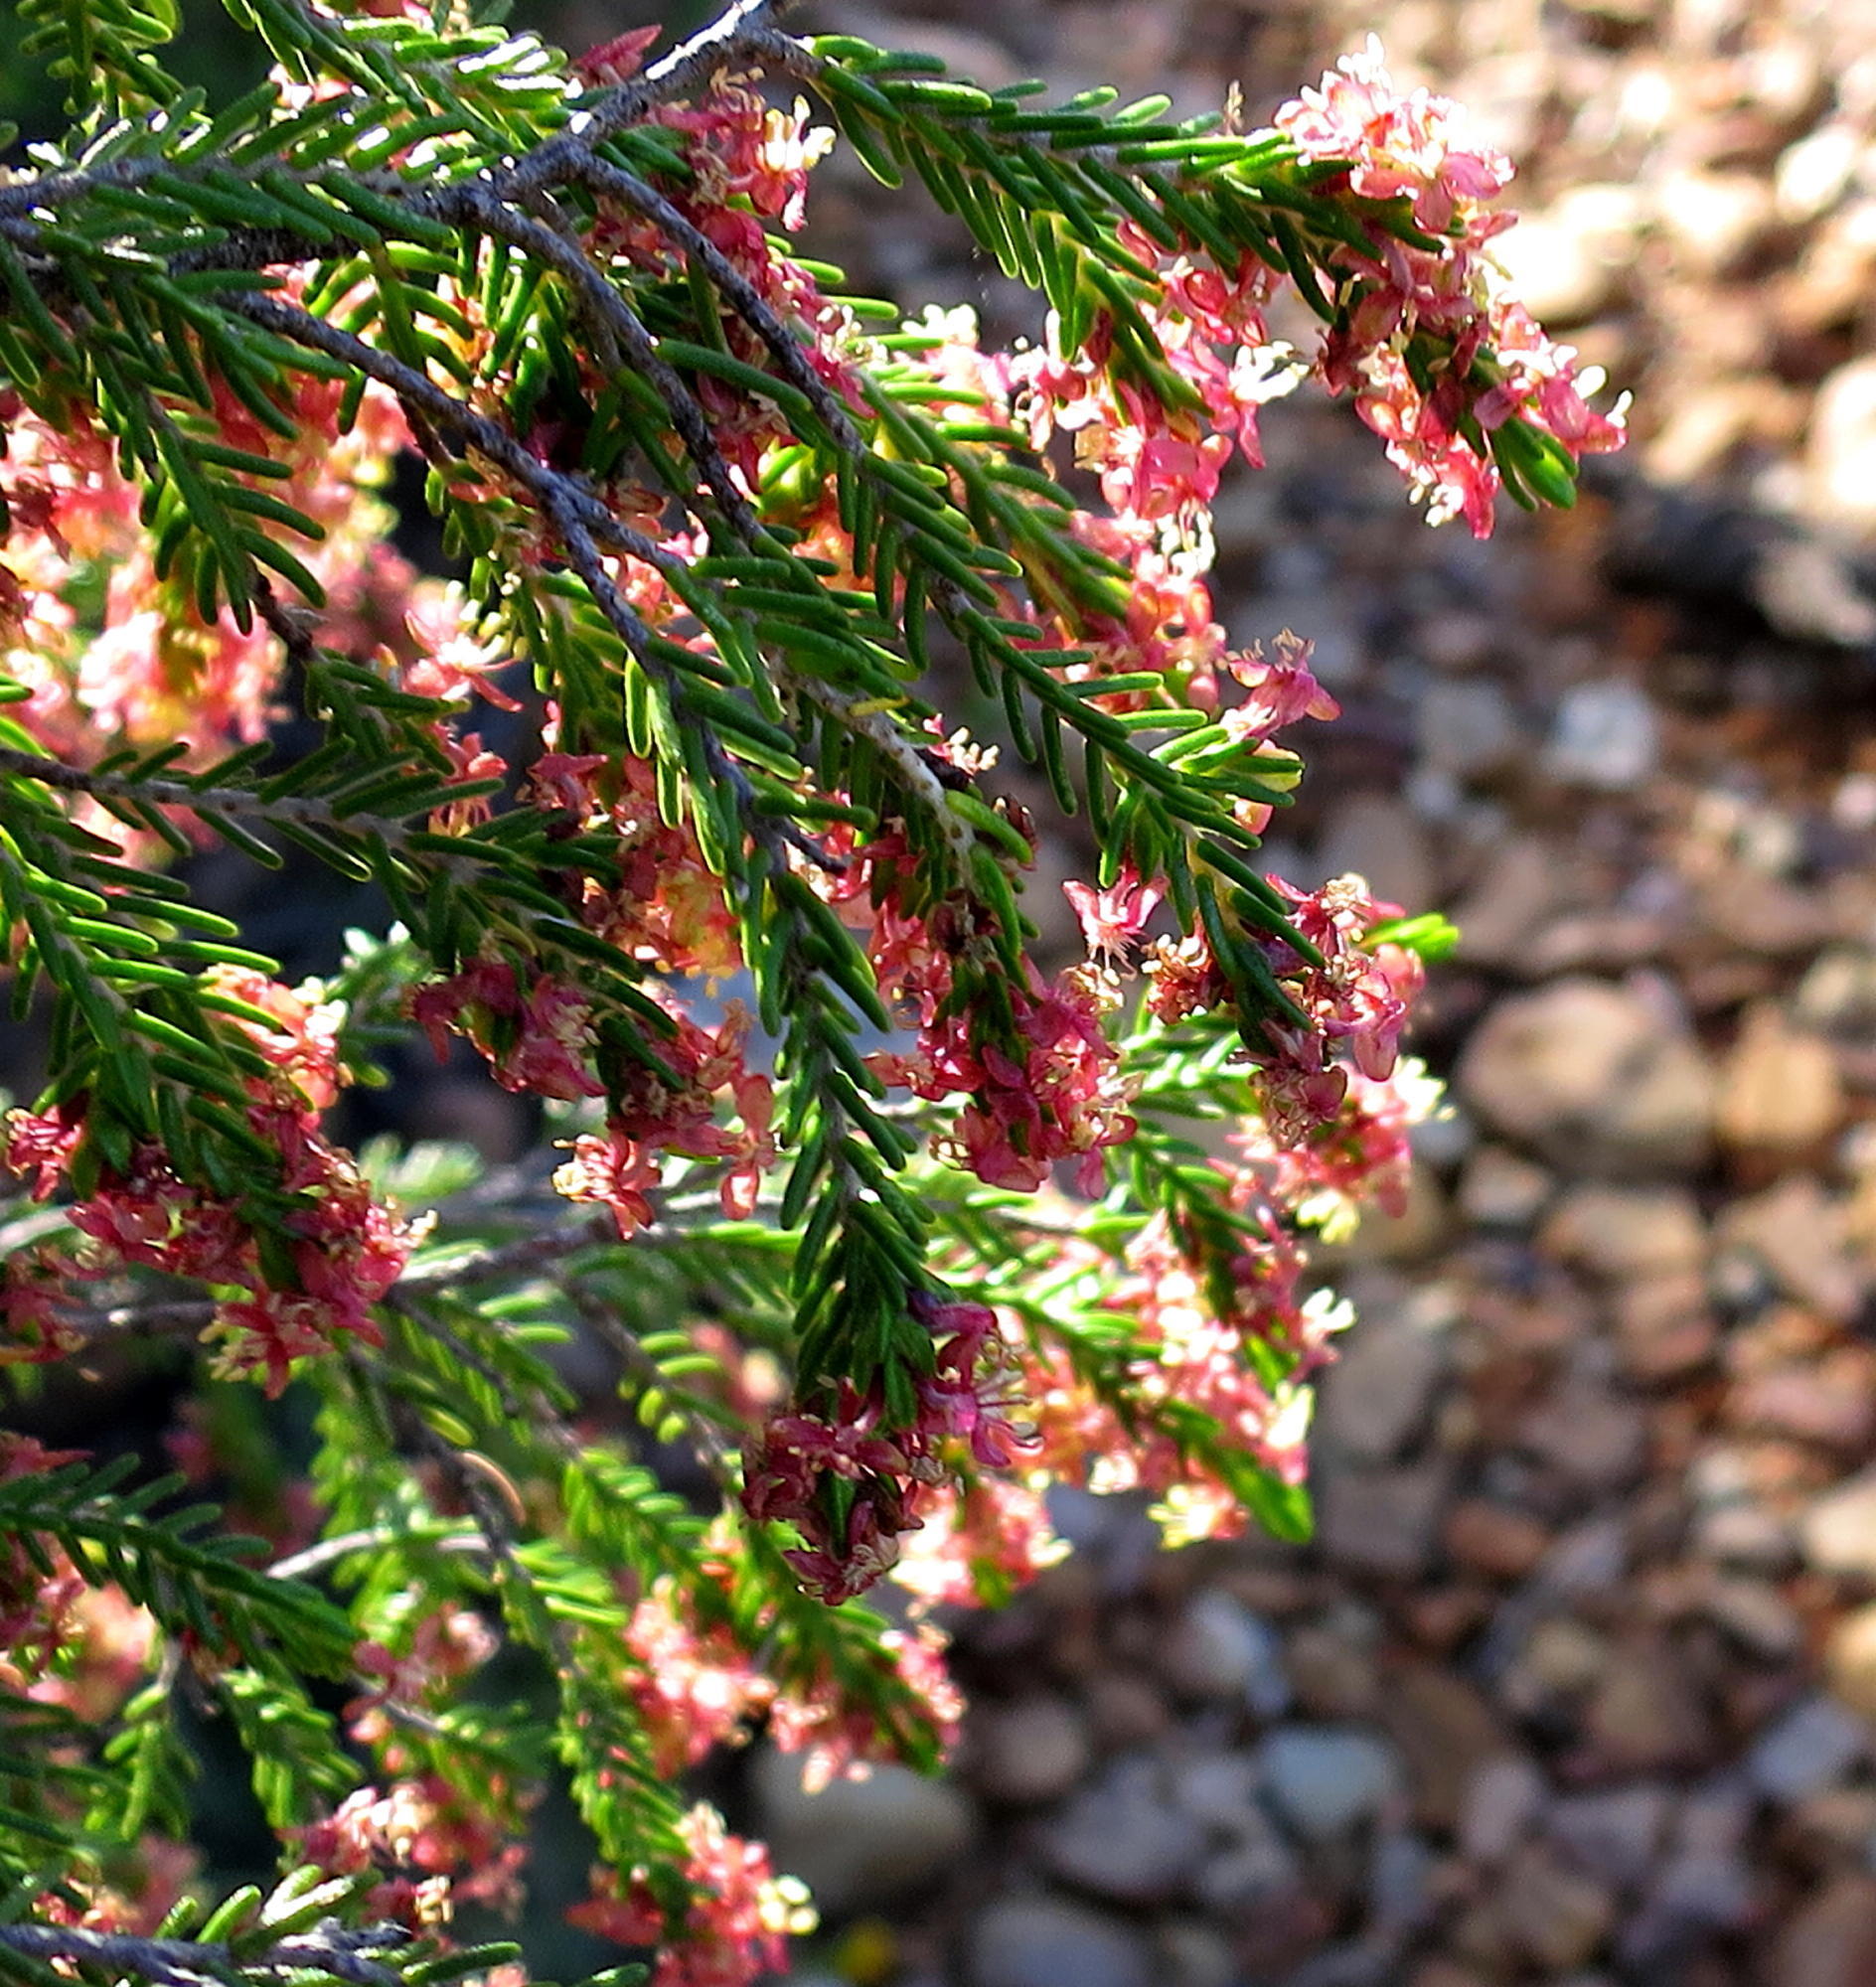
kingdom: Plantae
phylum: Tracheophyta
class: Magnoliopsida
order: Malvales
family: Thymelaeaceae
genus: Passerina
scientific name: Passerina obtusifolia
